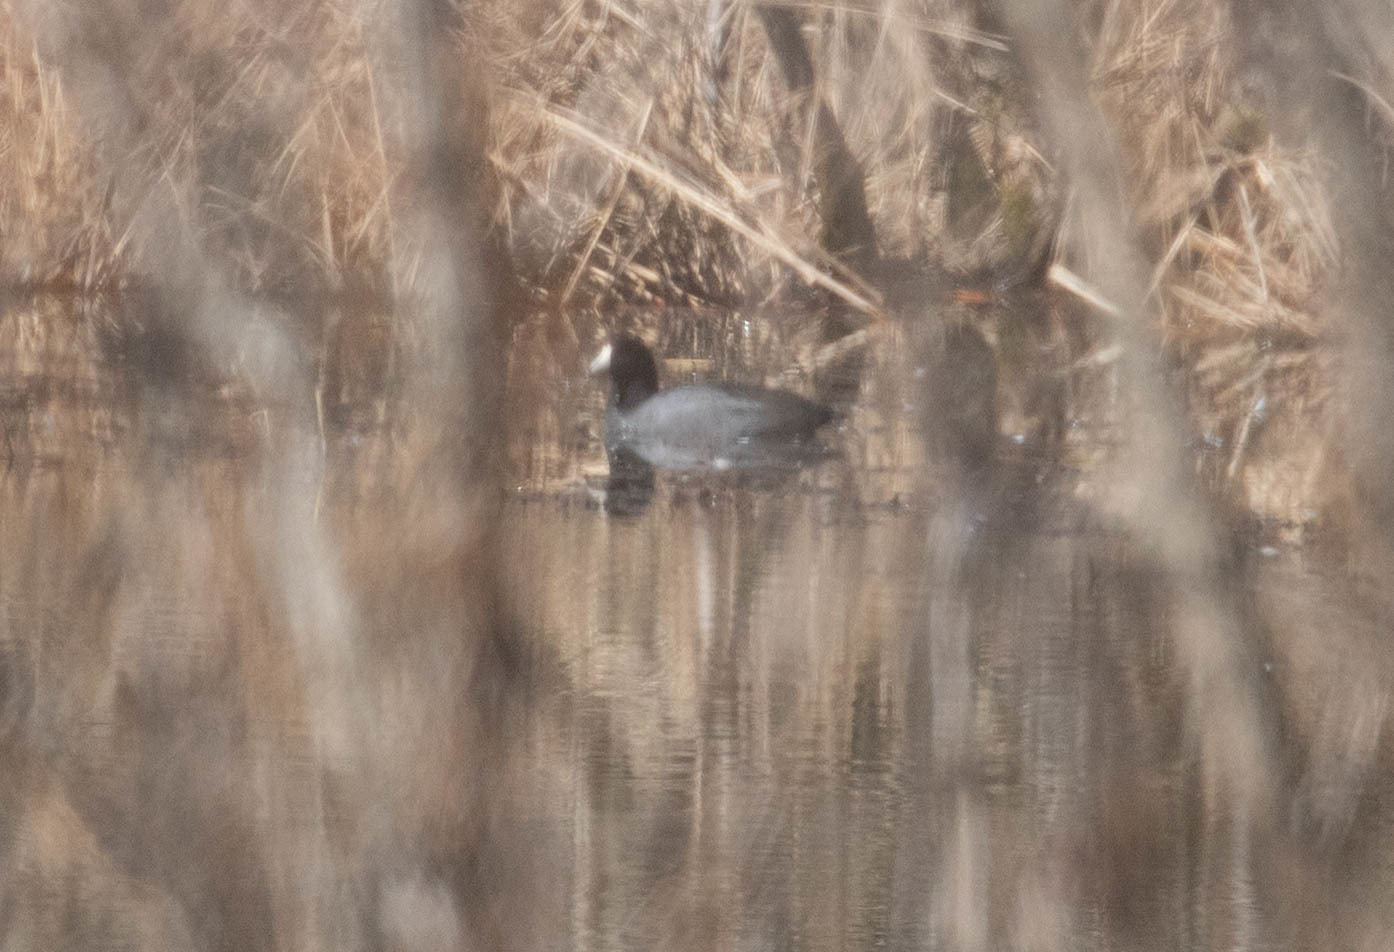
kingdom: Animalia
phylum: Chordata
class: Aves
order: Gruiformes
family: Rallidae
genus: Fulica
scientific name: Fulica americana
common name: American coot
